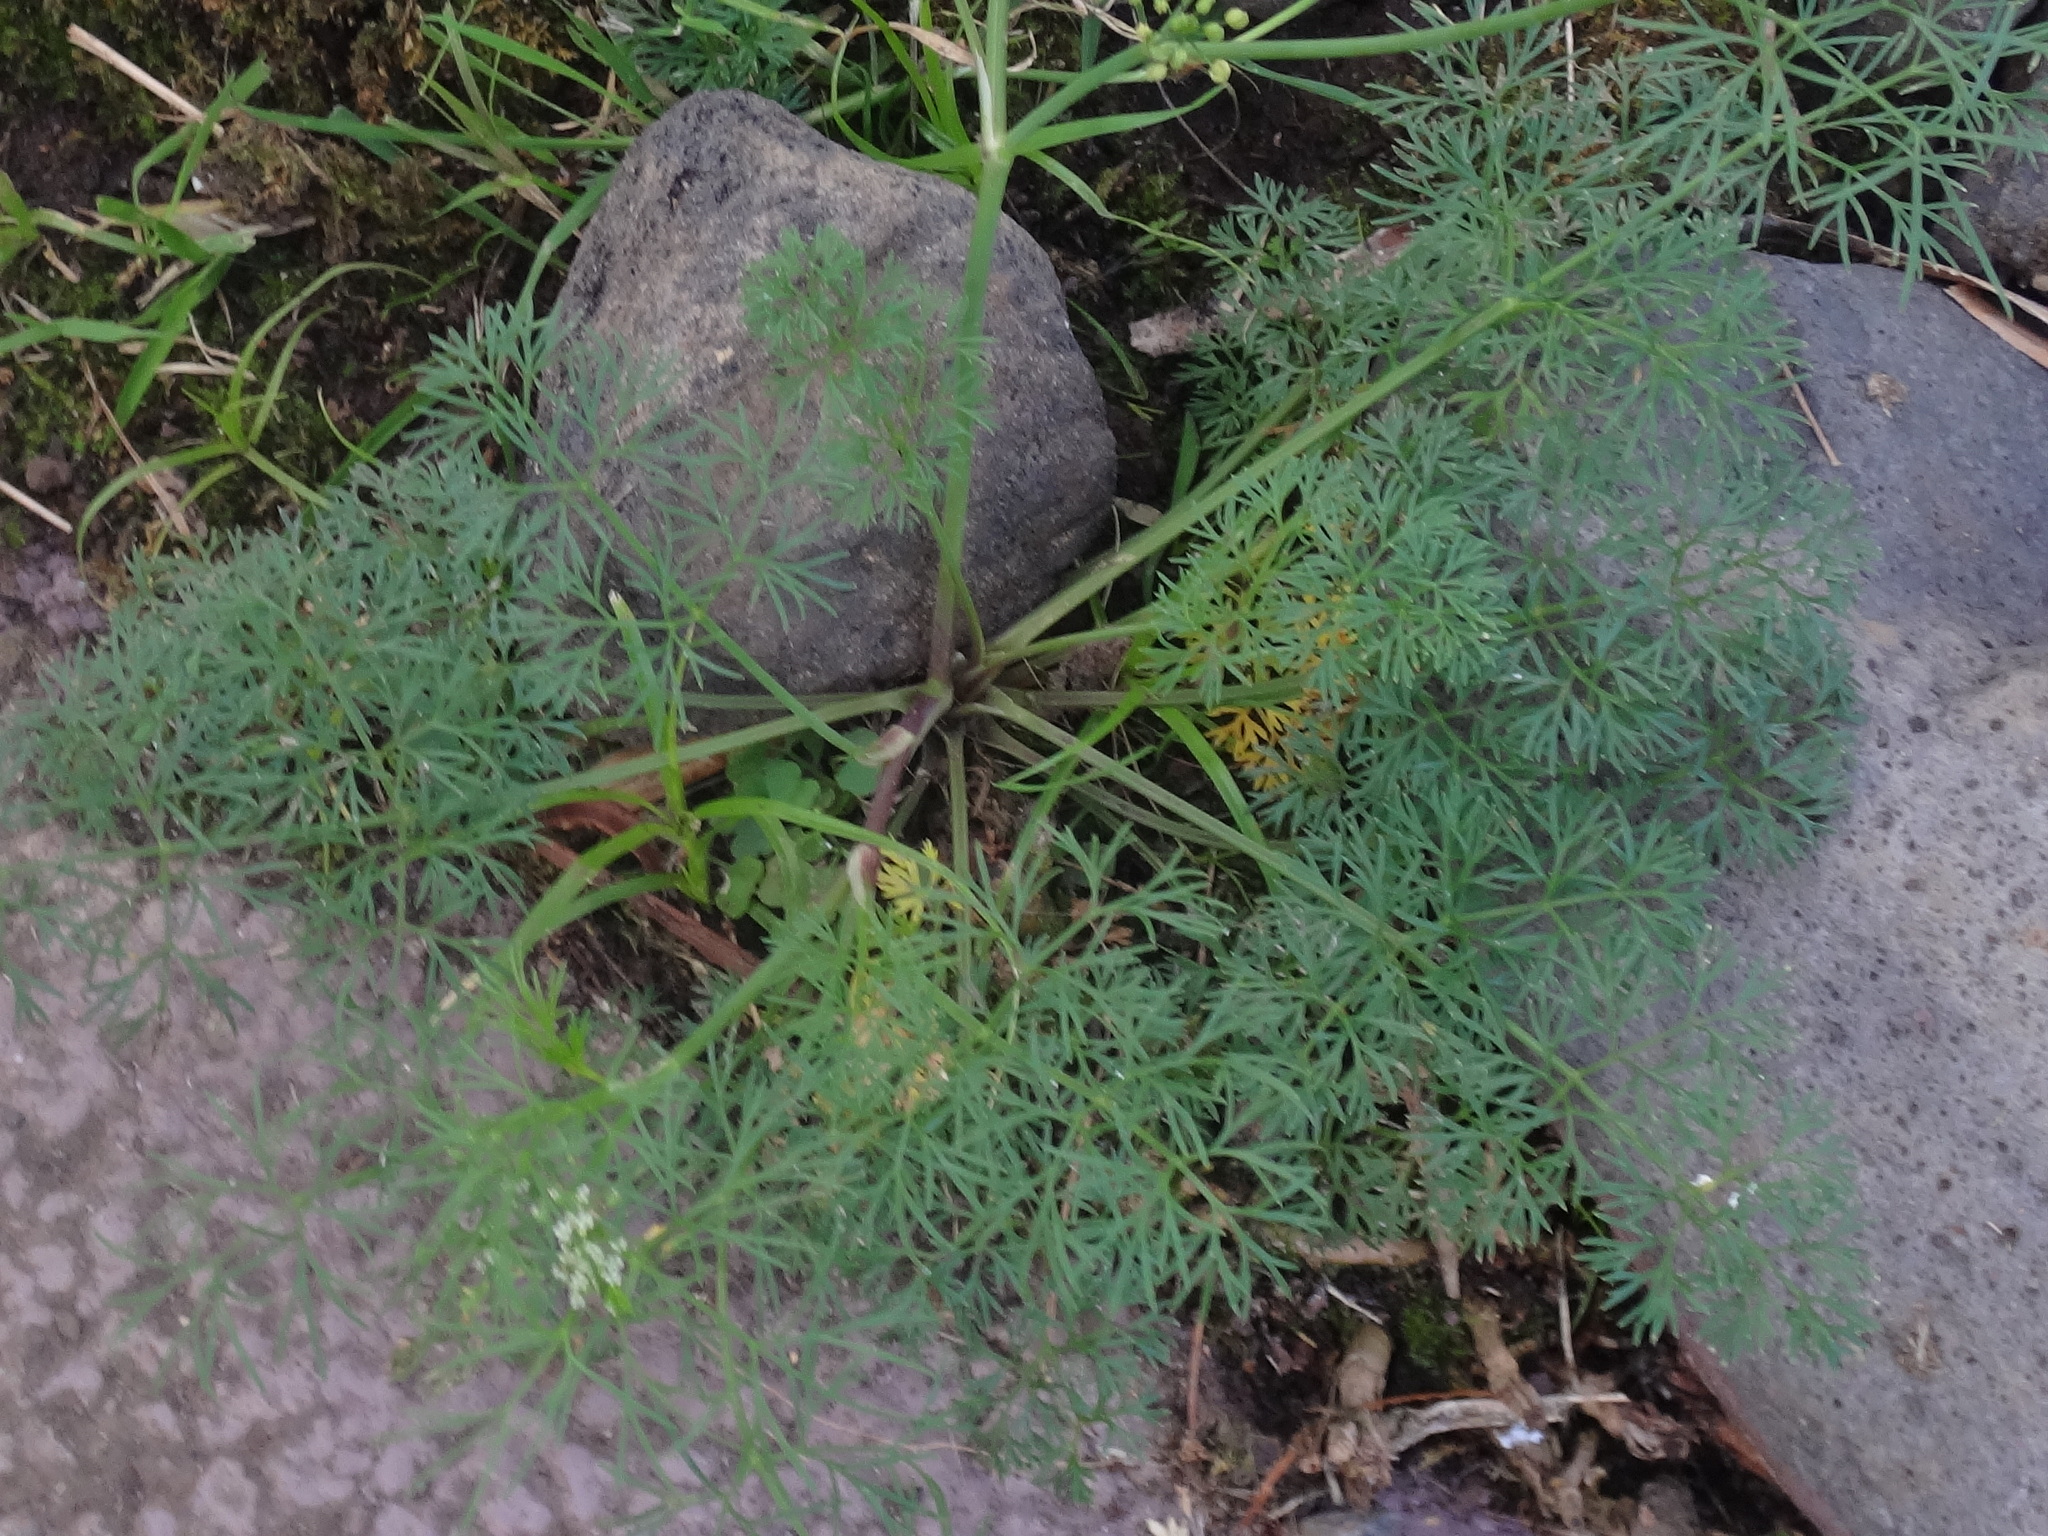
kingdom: Plantae
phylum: Tracheophyta
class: Magnoliopsida
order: Apiales
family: Apiaceae
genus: Cyclospermum
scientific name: Cyclospermum leptophyllum
